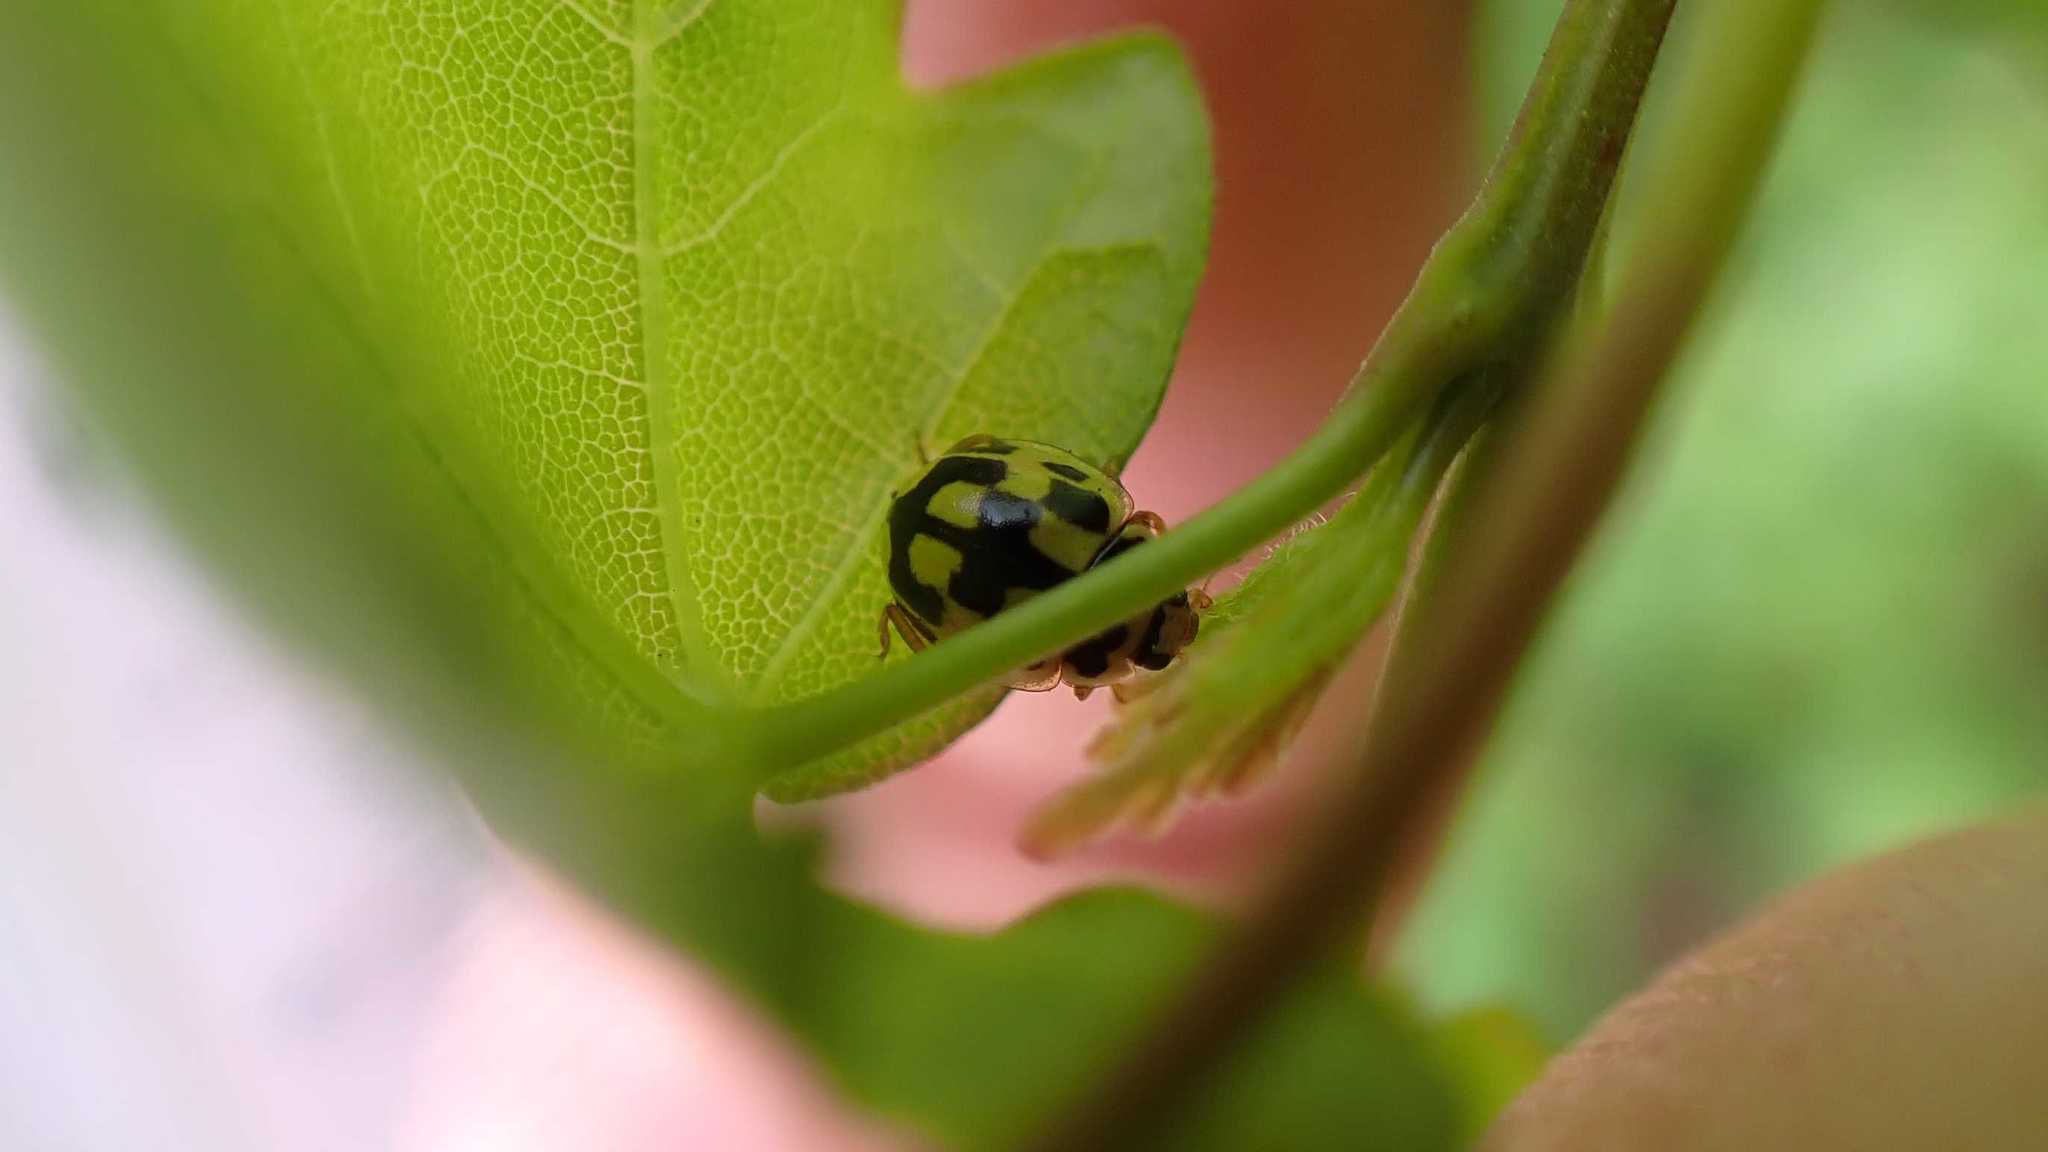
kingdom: Animalia
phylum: Arthropoda
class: Insecta
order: Coleoptera
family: Coccinellidae
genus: Propylaea
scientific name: Propylaea quatuordecimpunctata
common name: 14-spotted ladybird beetle
